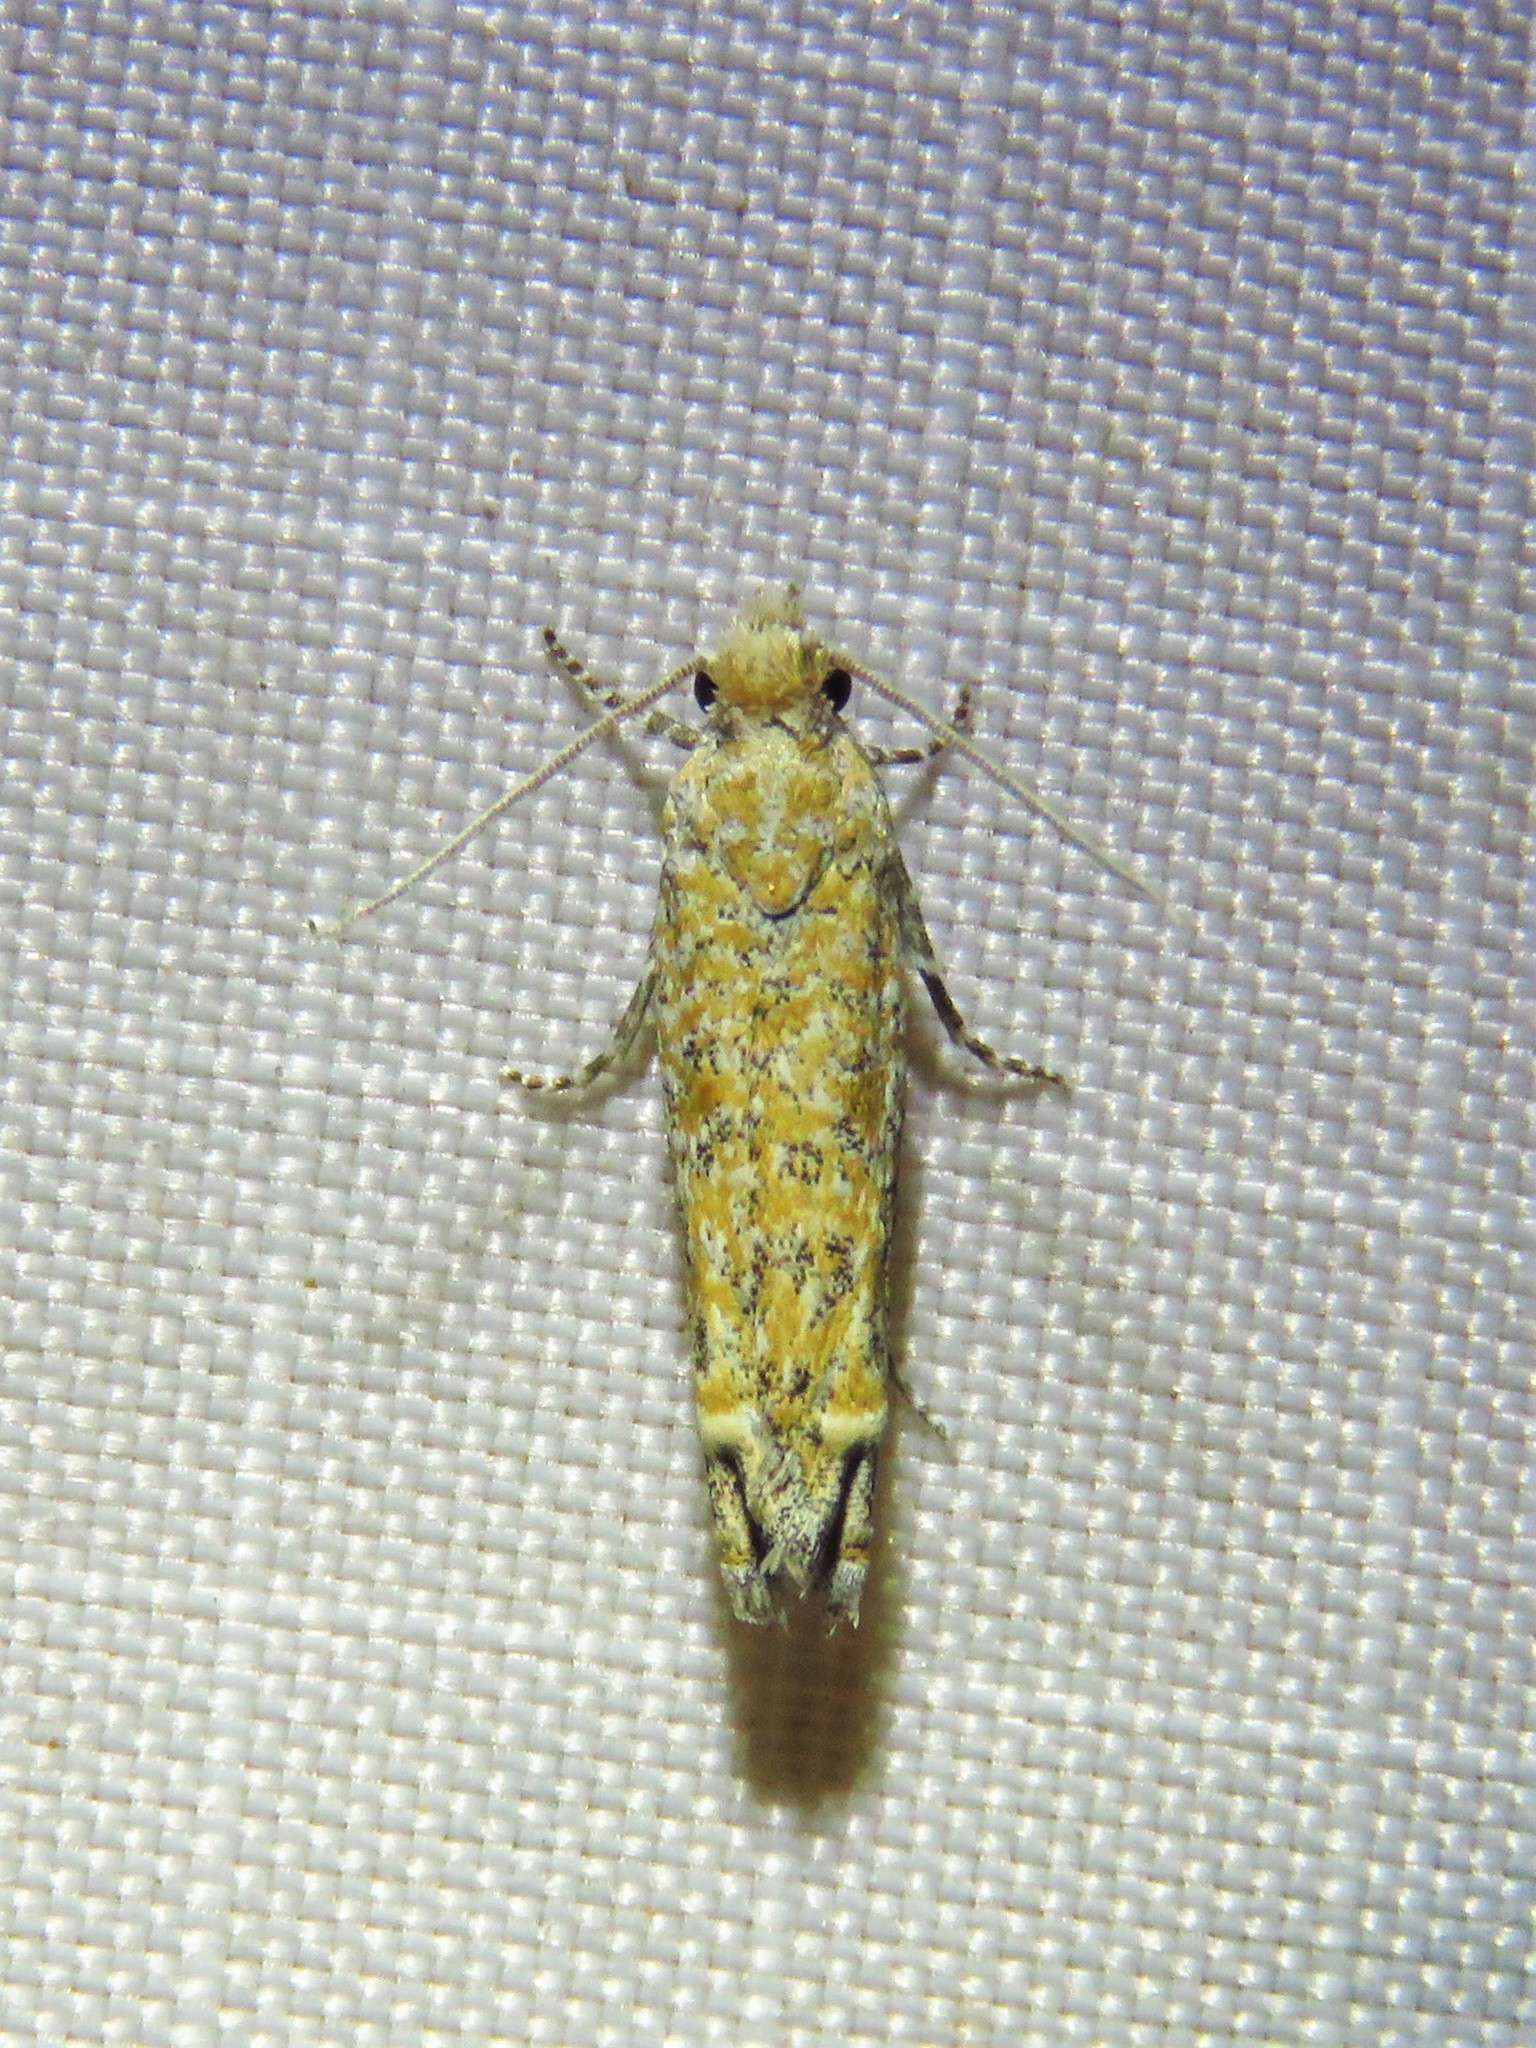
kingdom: Animalia
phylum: Arthropoda
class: Insecta
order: Lepidoptera
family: Tortricidae
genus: Pelochrista
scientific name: Pelochrista comatulana
